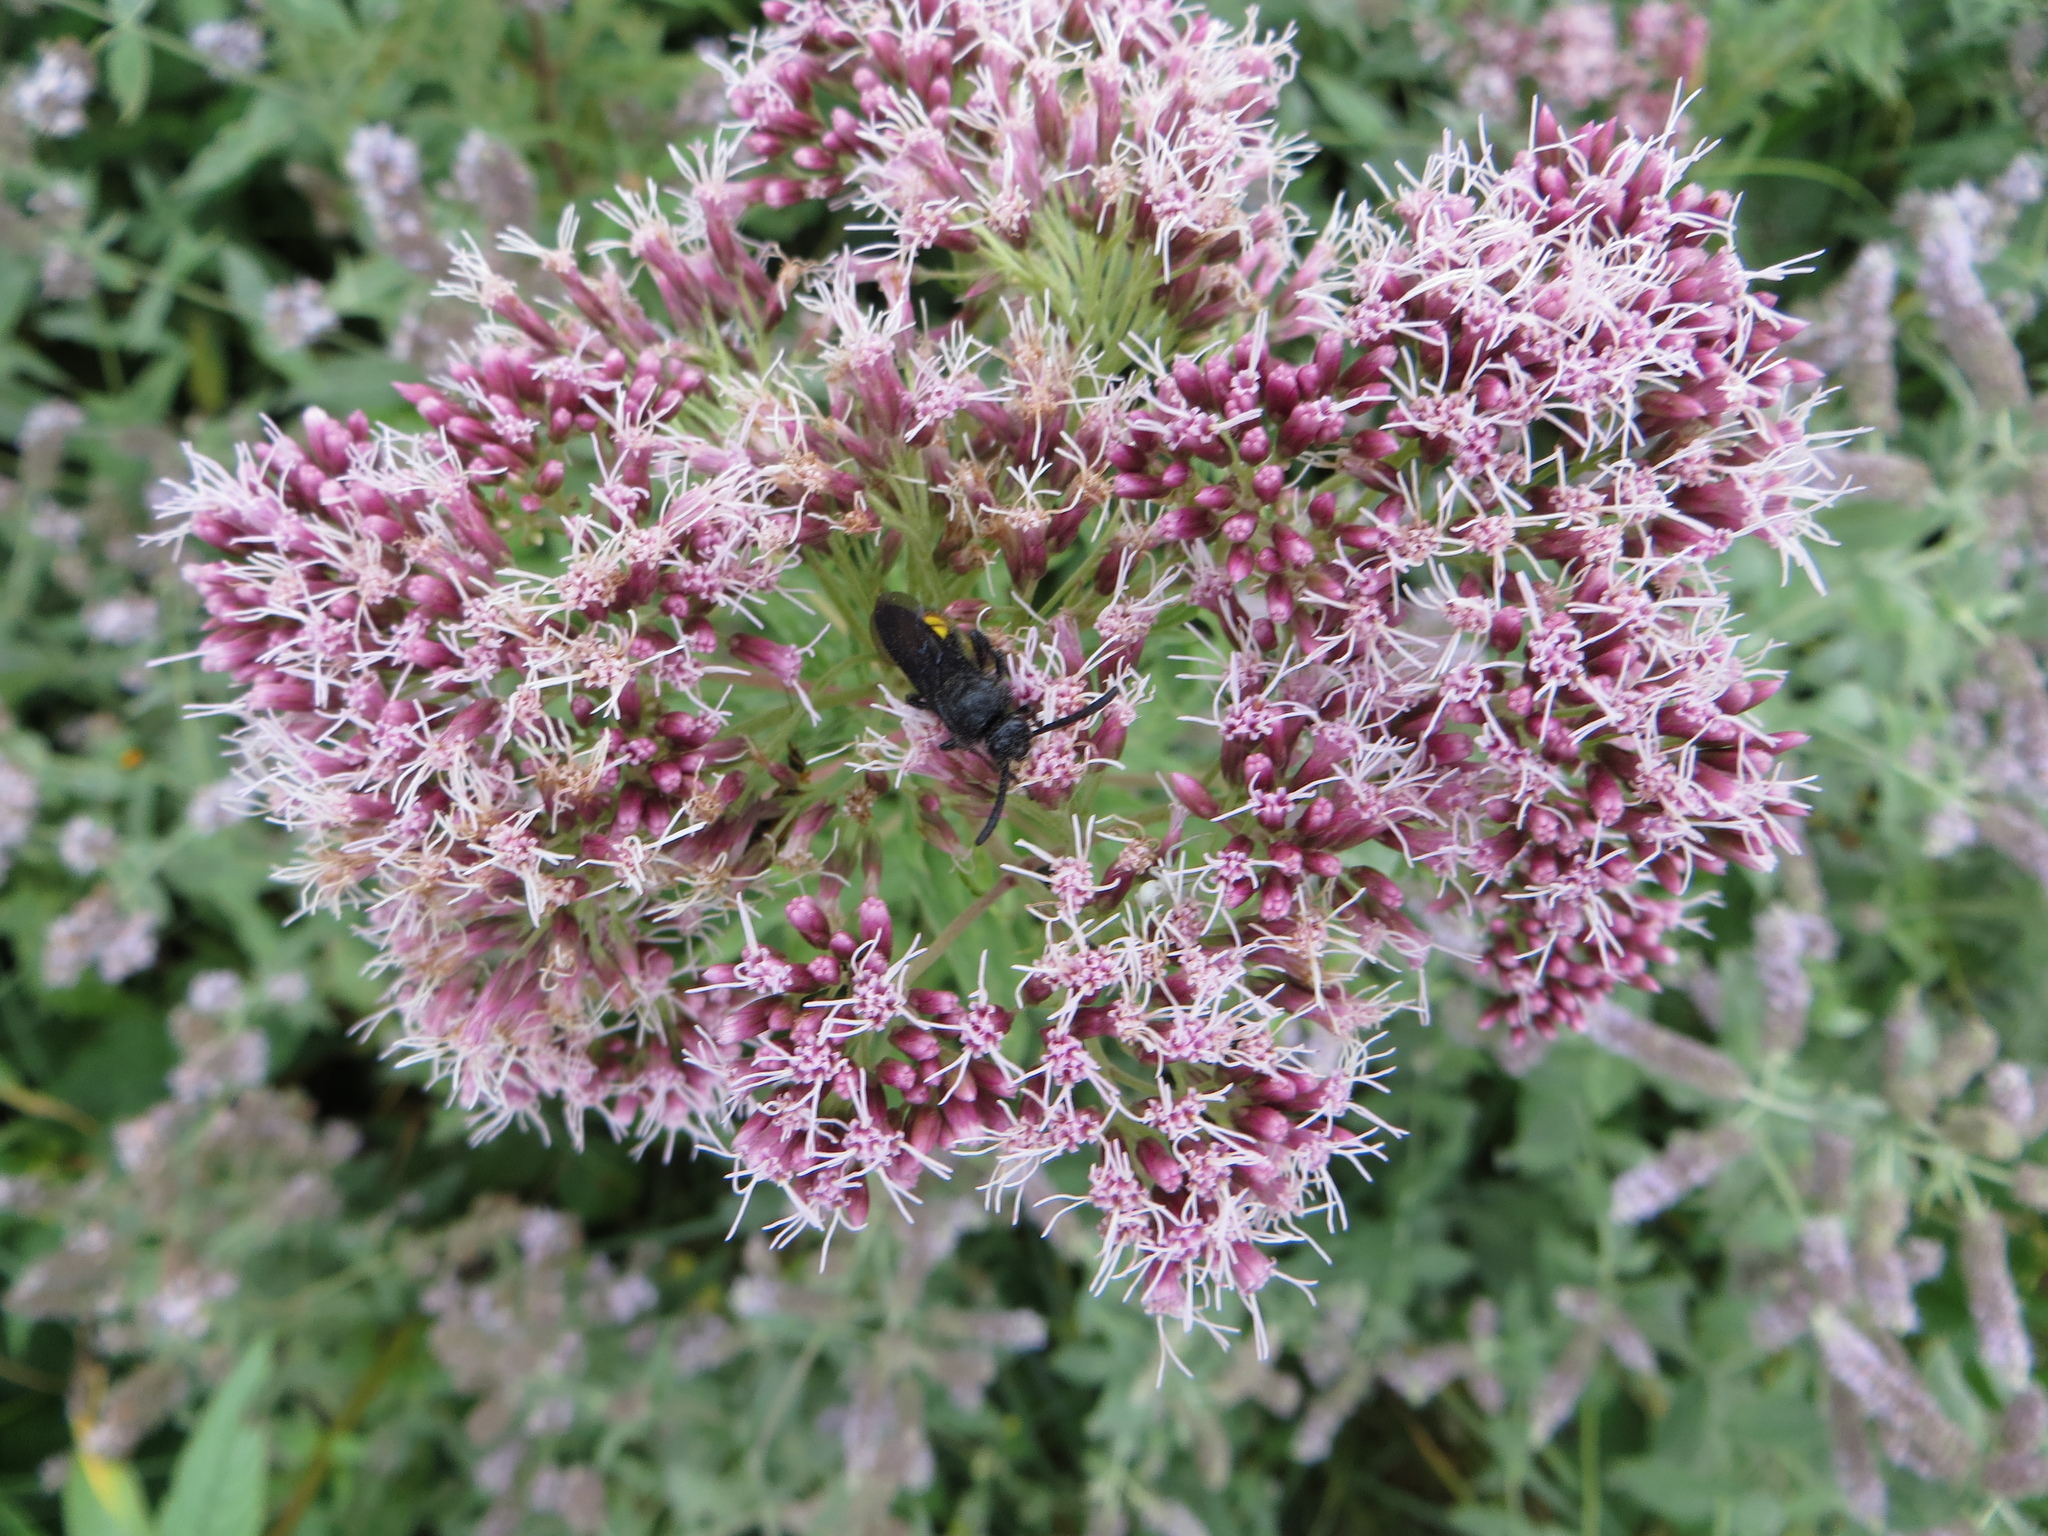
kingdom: Animalia
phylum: Arthropoda
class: Insecta
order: Hymenoptera
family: Scoliidae
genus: Scolia
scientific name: Scolia hirta
